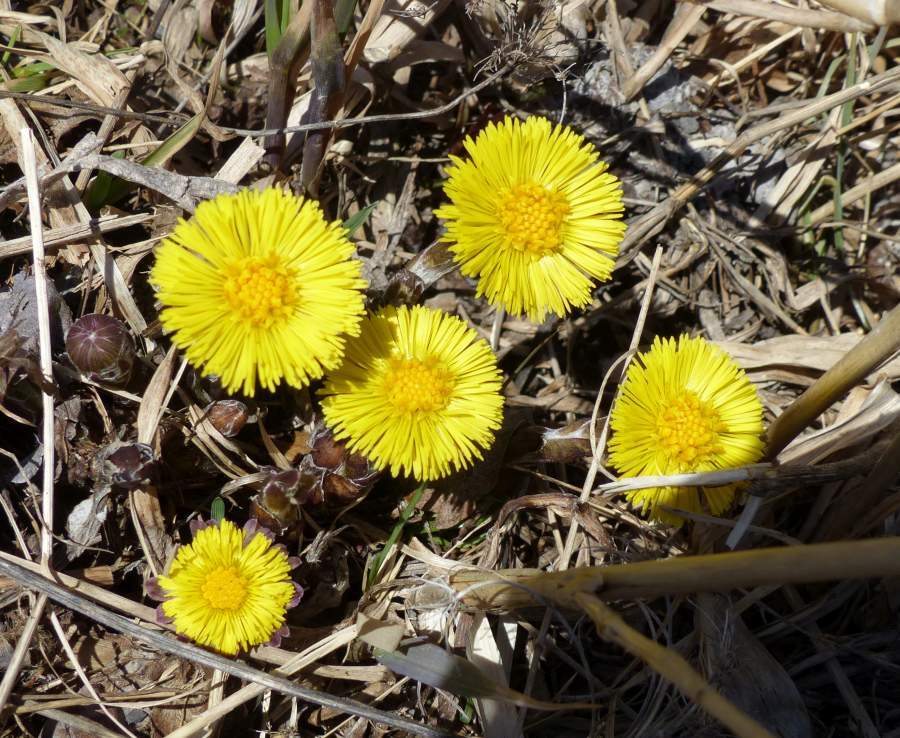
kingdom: Plantae
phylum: Tracheophyta
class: Magnoliopsida
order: Asterales
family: Asteraceae
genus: Tussilago
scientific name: Tussilago farfara
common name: Coltsfoot
